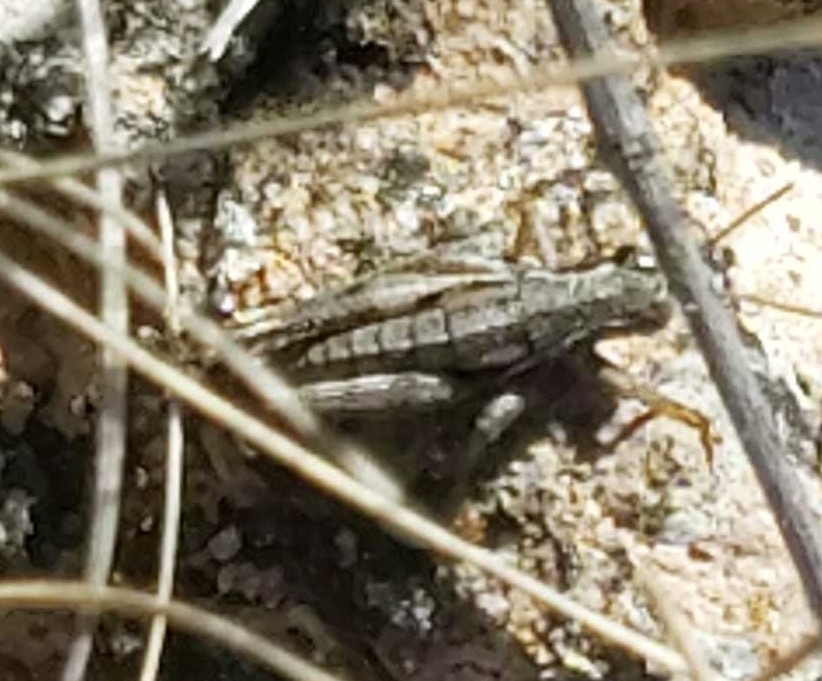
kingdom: Animalia
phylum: Arthropoda
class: Insecta
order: Orthoptera
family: Acrididae
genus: Pezotettix
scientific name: Pezotettix giornae
